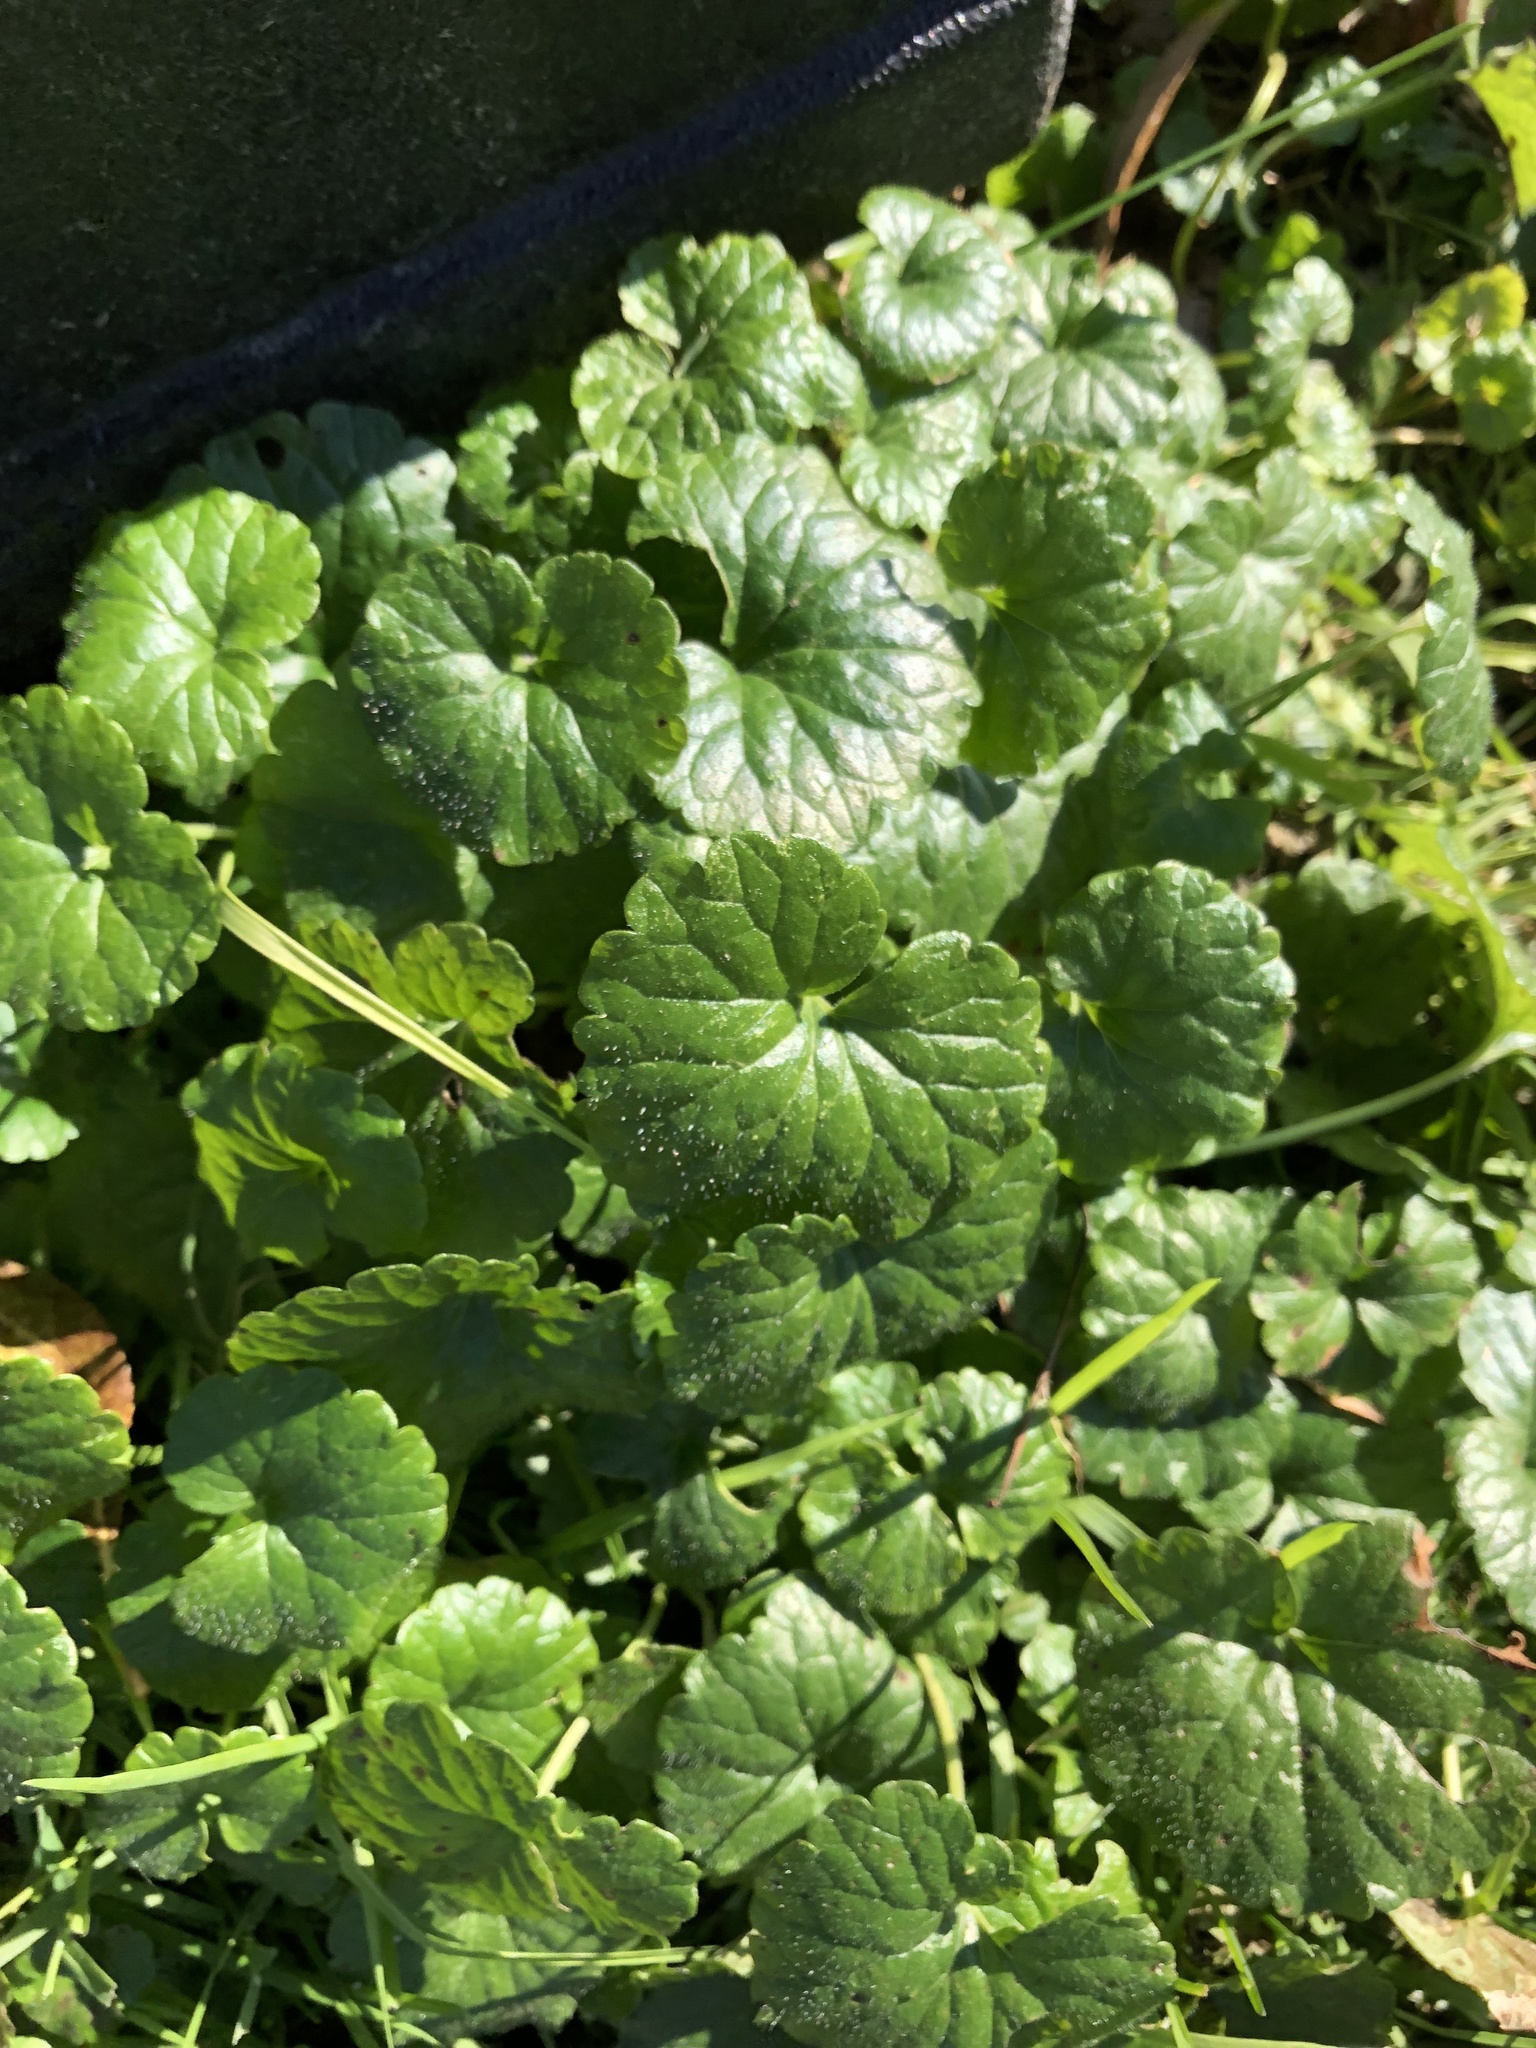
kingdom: Plantae
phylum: Tracheophyta
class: Magnoliopsida
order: Lamiales
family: Lamiaceae
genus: Glechoma
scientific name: Glechoma hederacea
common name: Ground ivy
